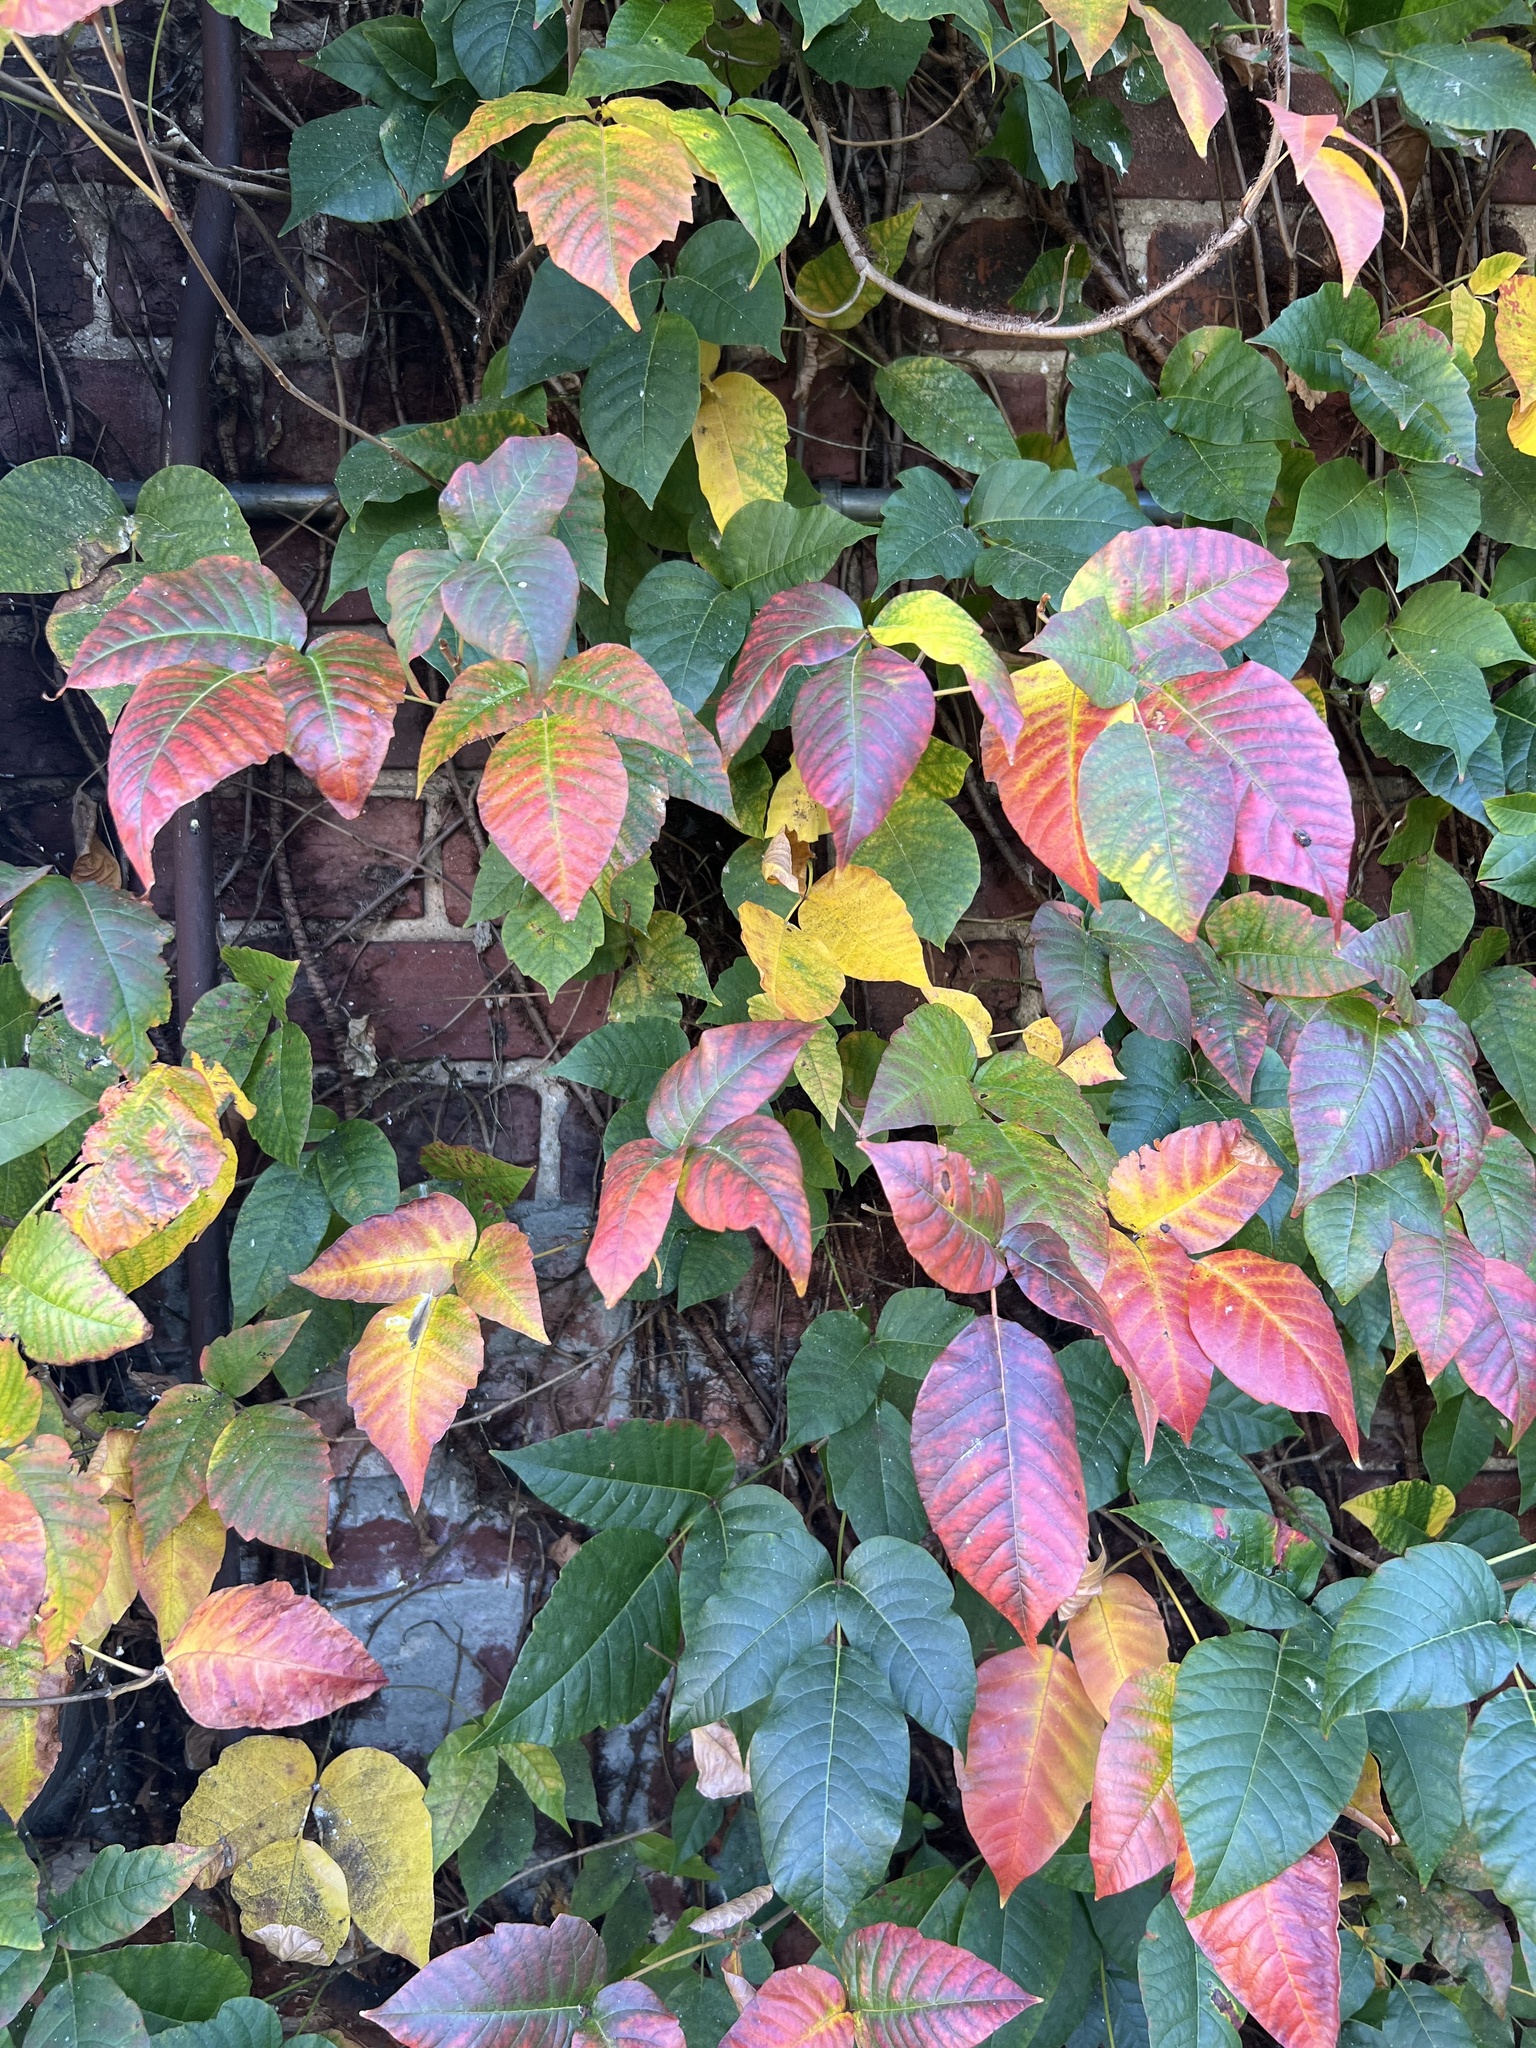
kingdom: Plantae
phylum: Tracheophyta
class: Magnoliopsida
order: Sapindales
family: Anacardiaceae
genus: Toxicodendron
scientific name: Toxicodendron radicans
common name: Poison ivy
